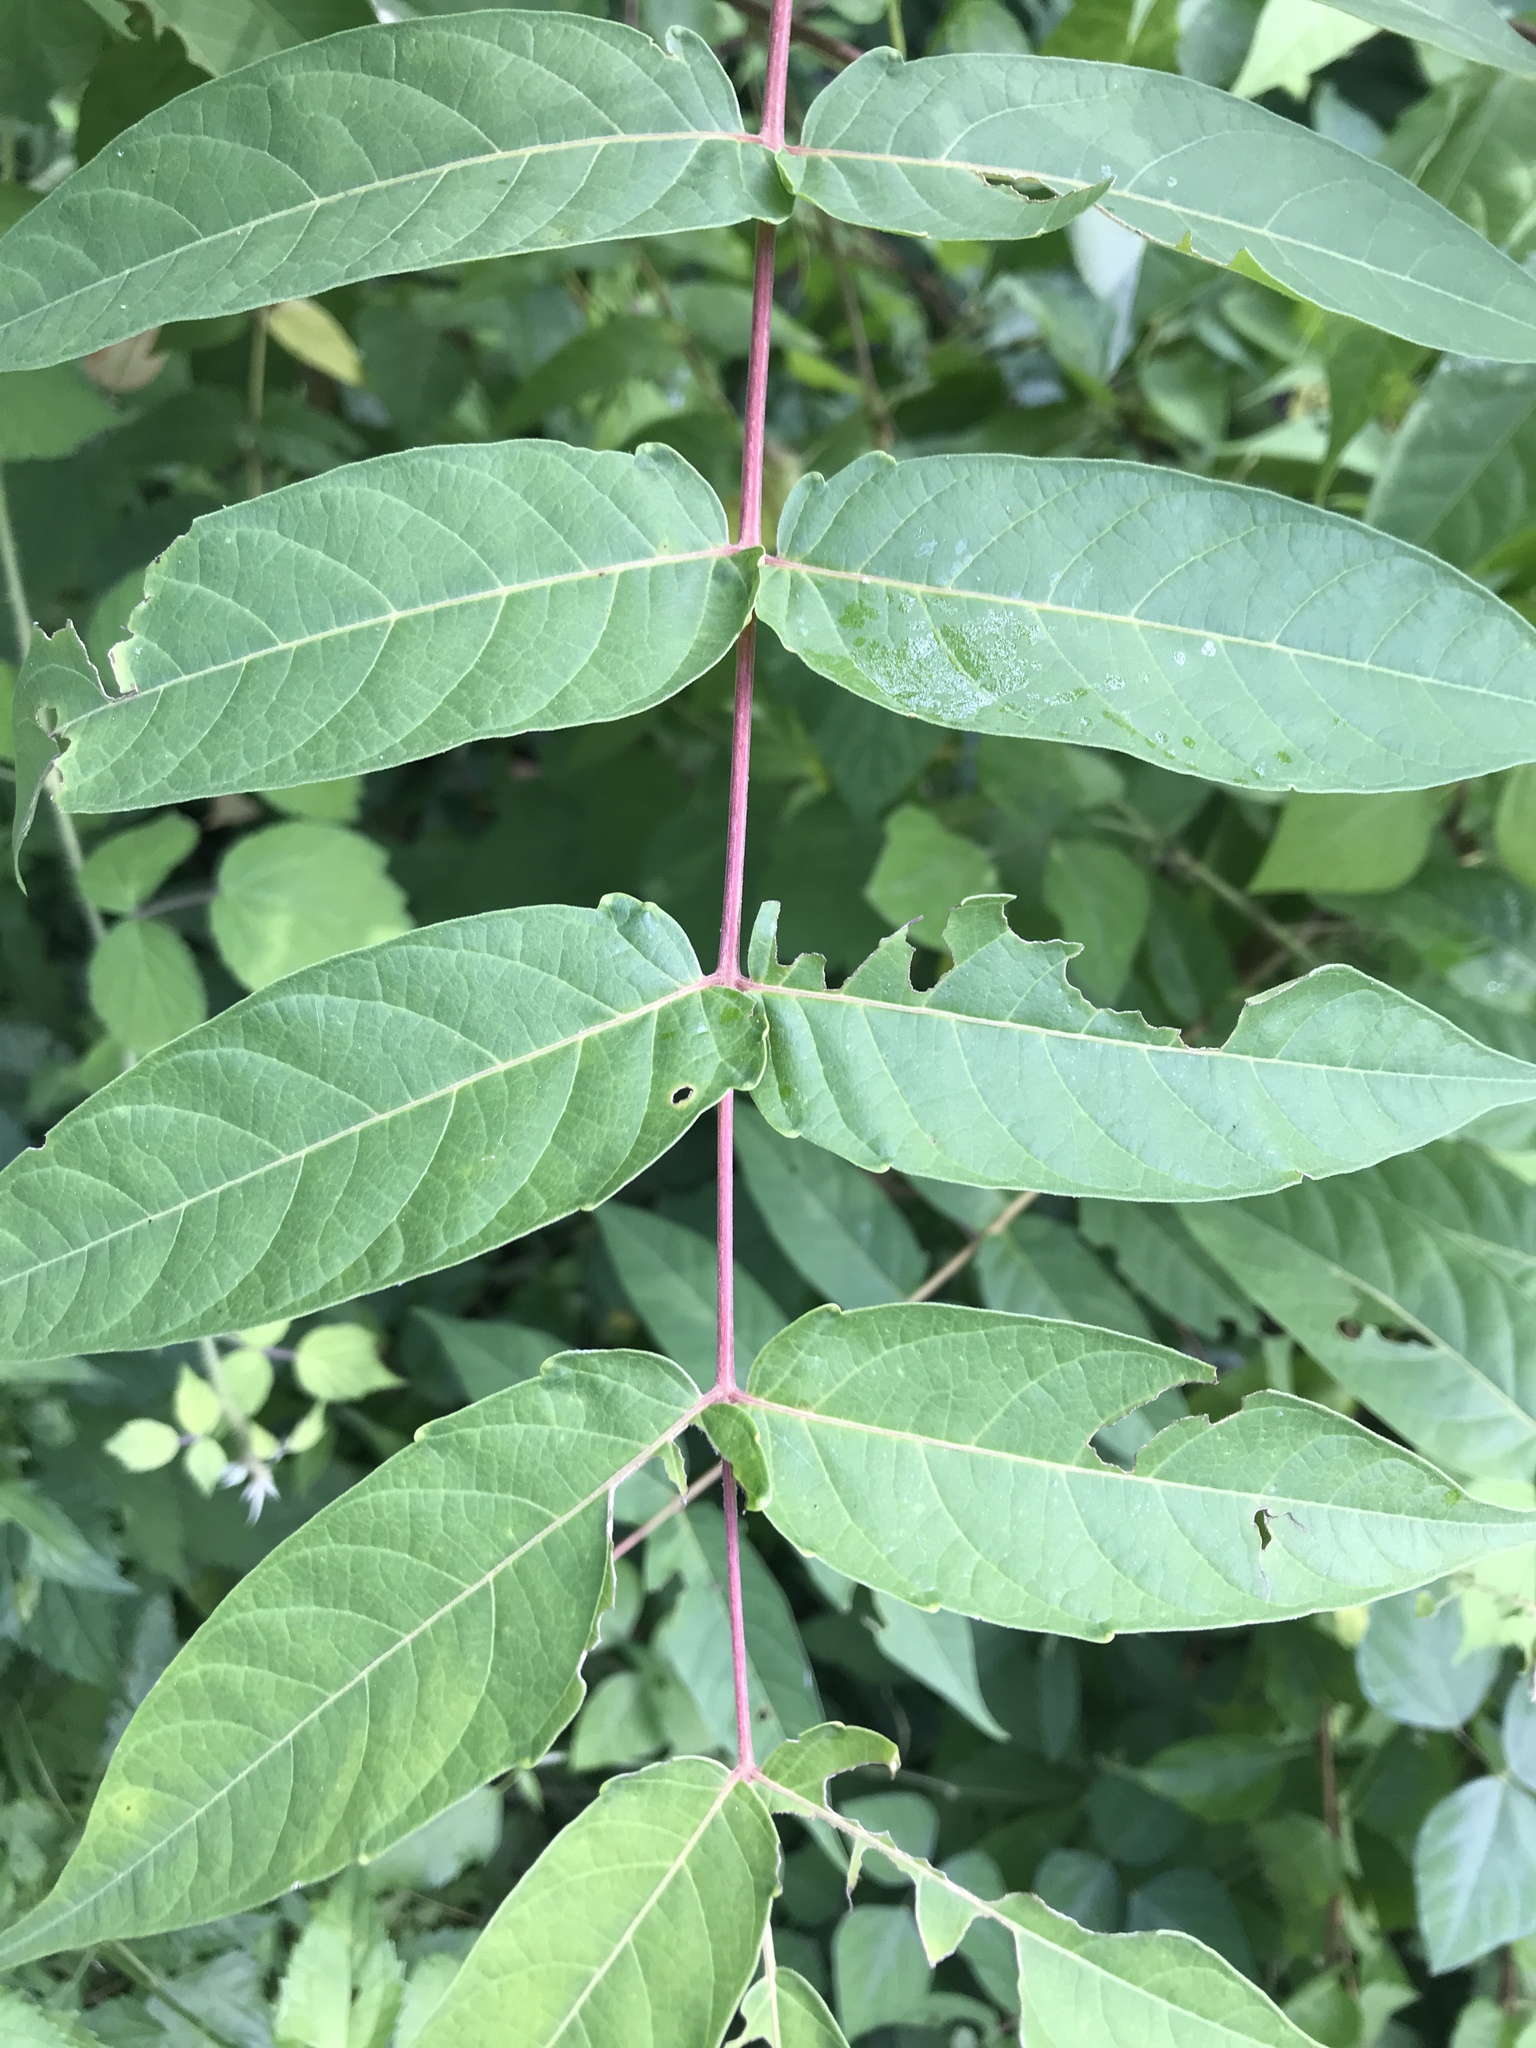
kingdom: Plantae
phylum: Tracheophyta
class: Magnoliopsida
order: Sapindales
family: Simaroubaceae
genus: Ailanthus
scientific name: Ailanthus altissima
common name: Tree-of-heaven
